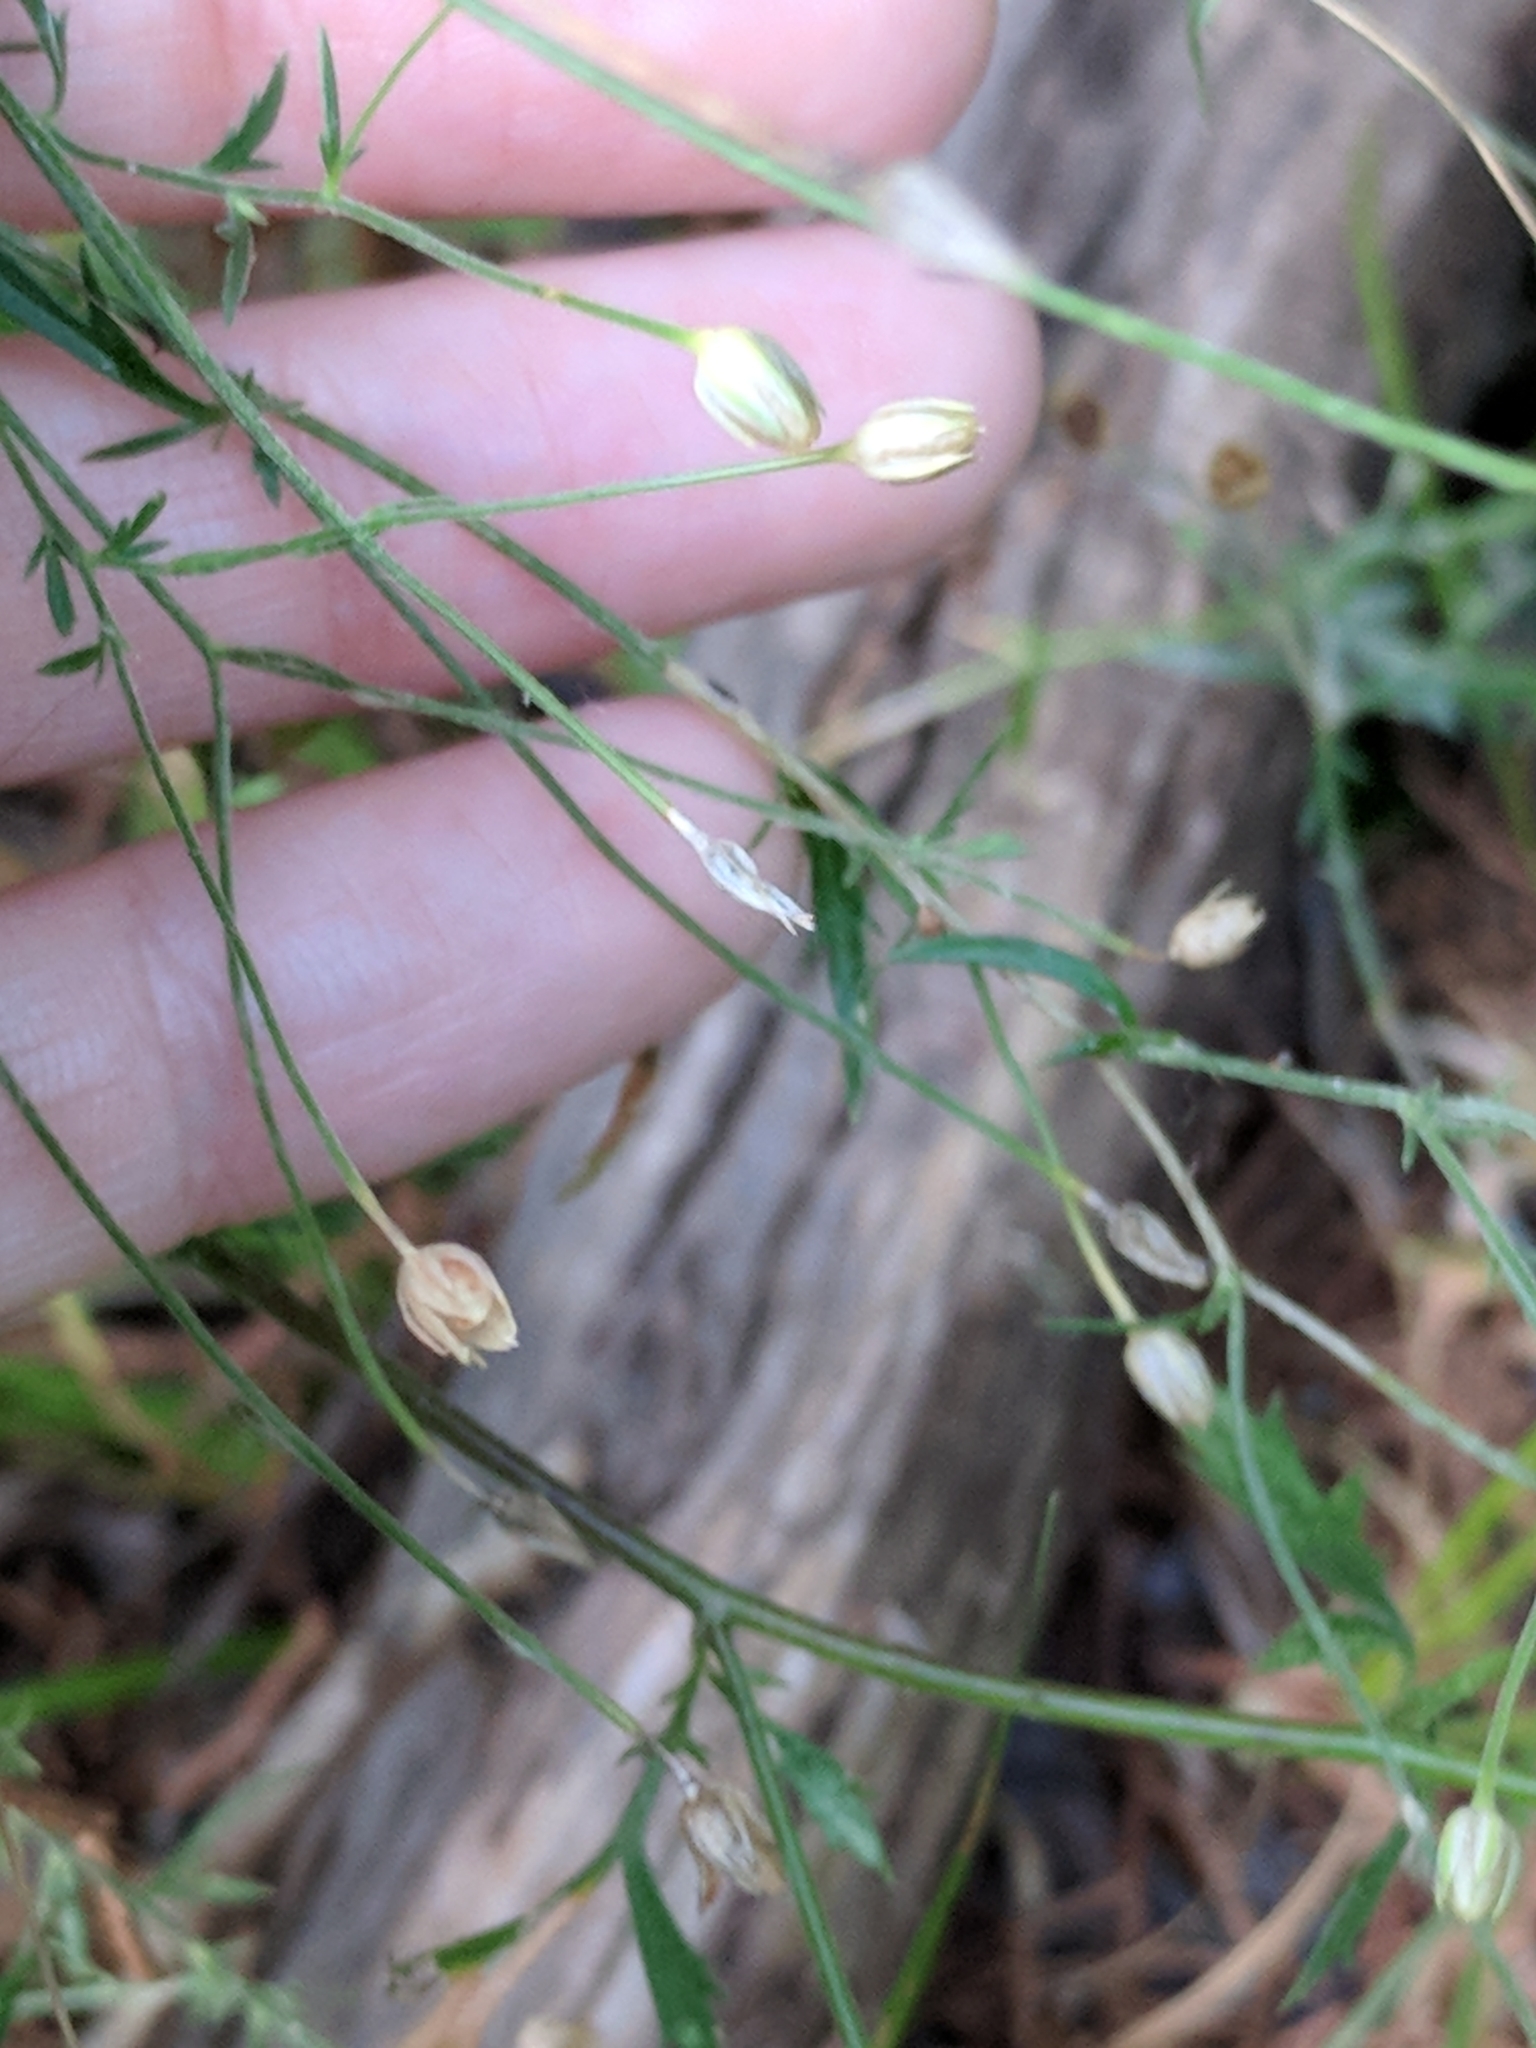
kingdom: Plantae
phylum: Tracheophyta
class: Magnoliopsida
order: Ericales
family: Polemoniaceae
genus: Giliastrum
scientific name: Giliastrum incisum
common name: Splitleaf gilia
